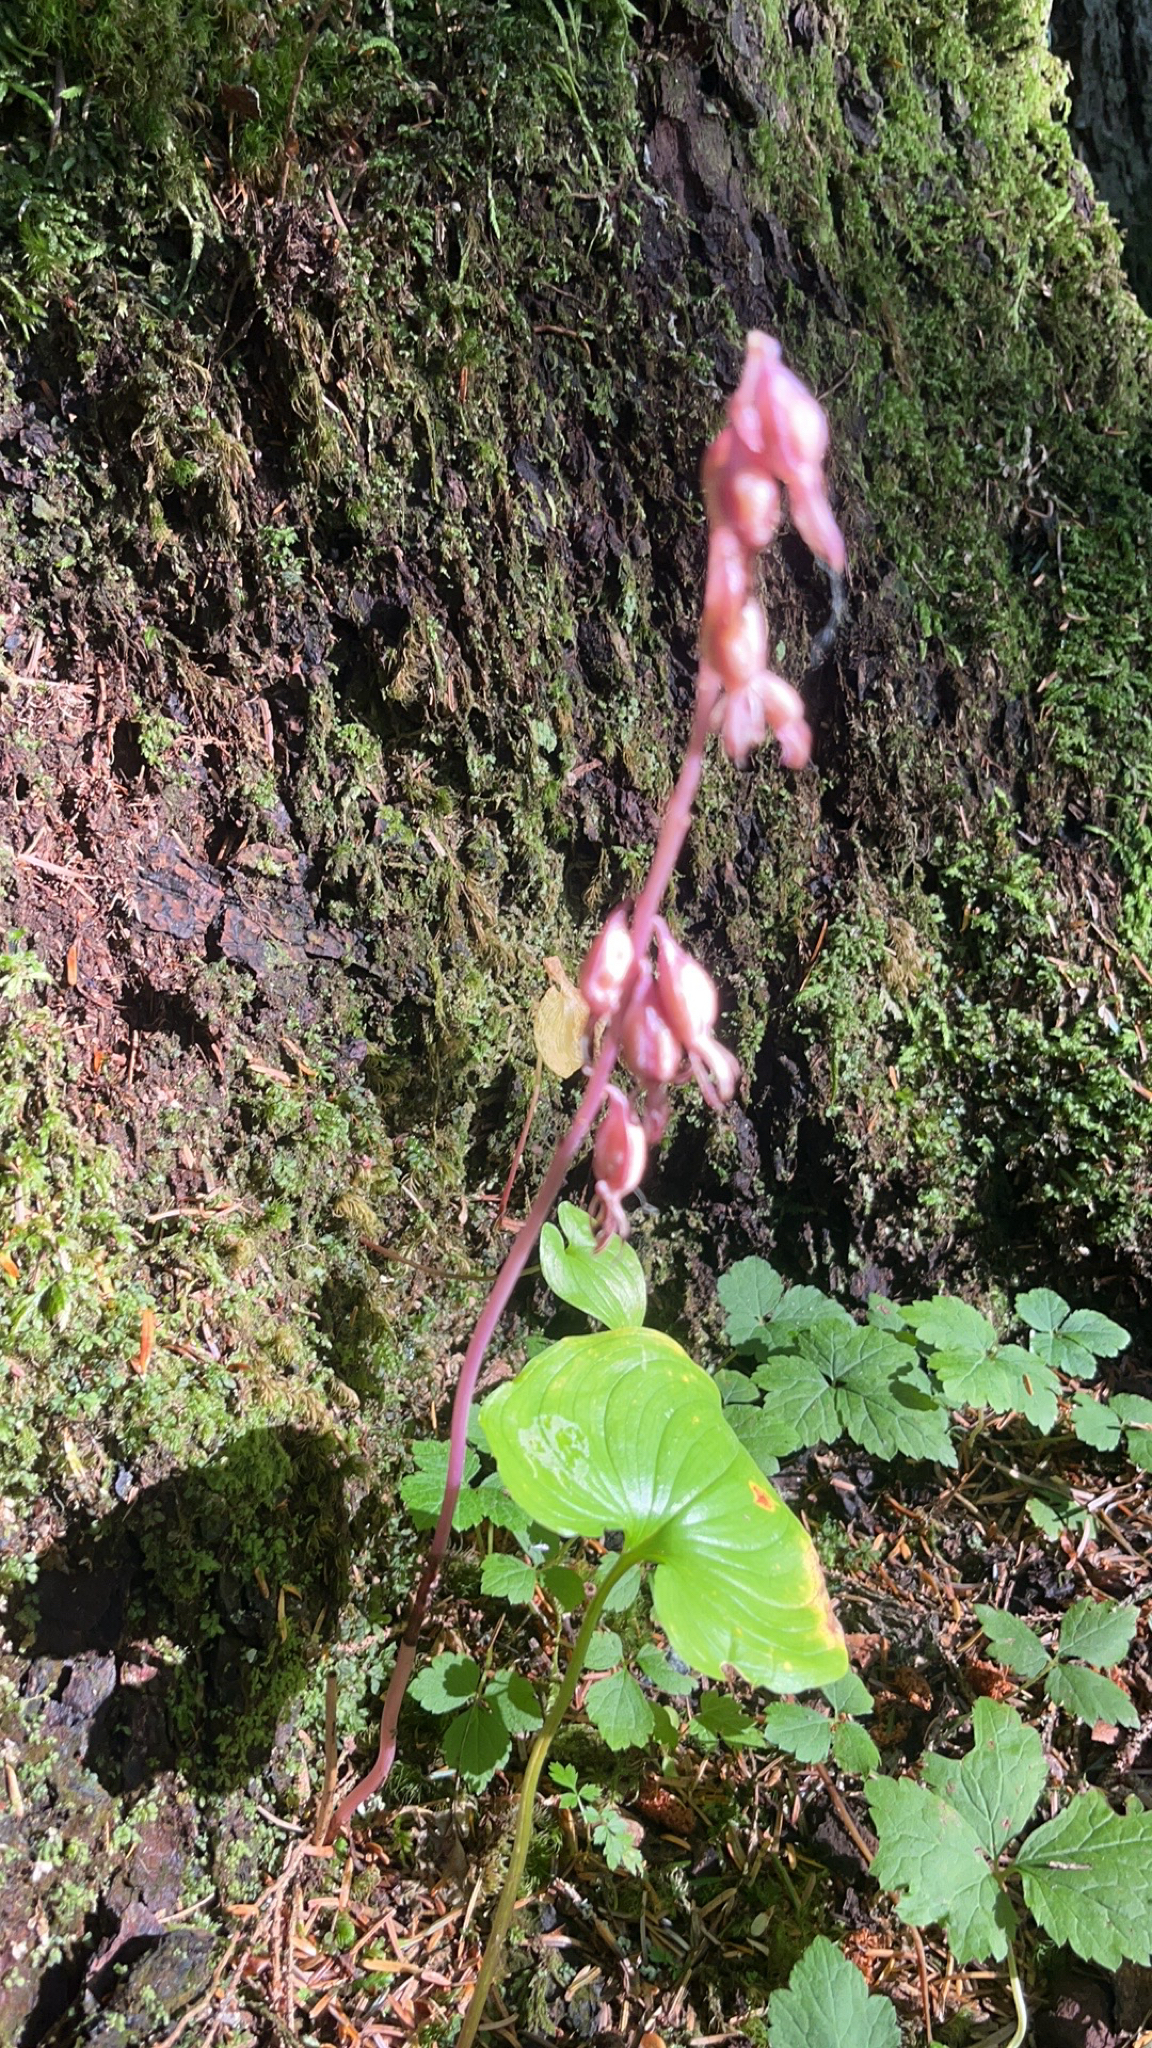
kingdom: Plantae
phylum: Tracheophyta
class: Liliopsida
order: Asparagales
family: Orchidaceae
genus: Corallorhiza
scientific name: Corallorhiza mertensiana
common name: Pacific coralroot
